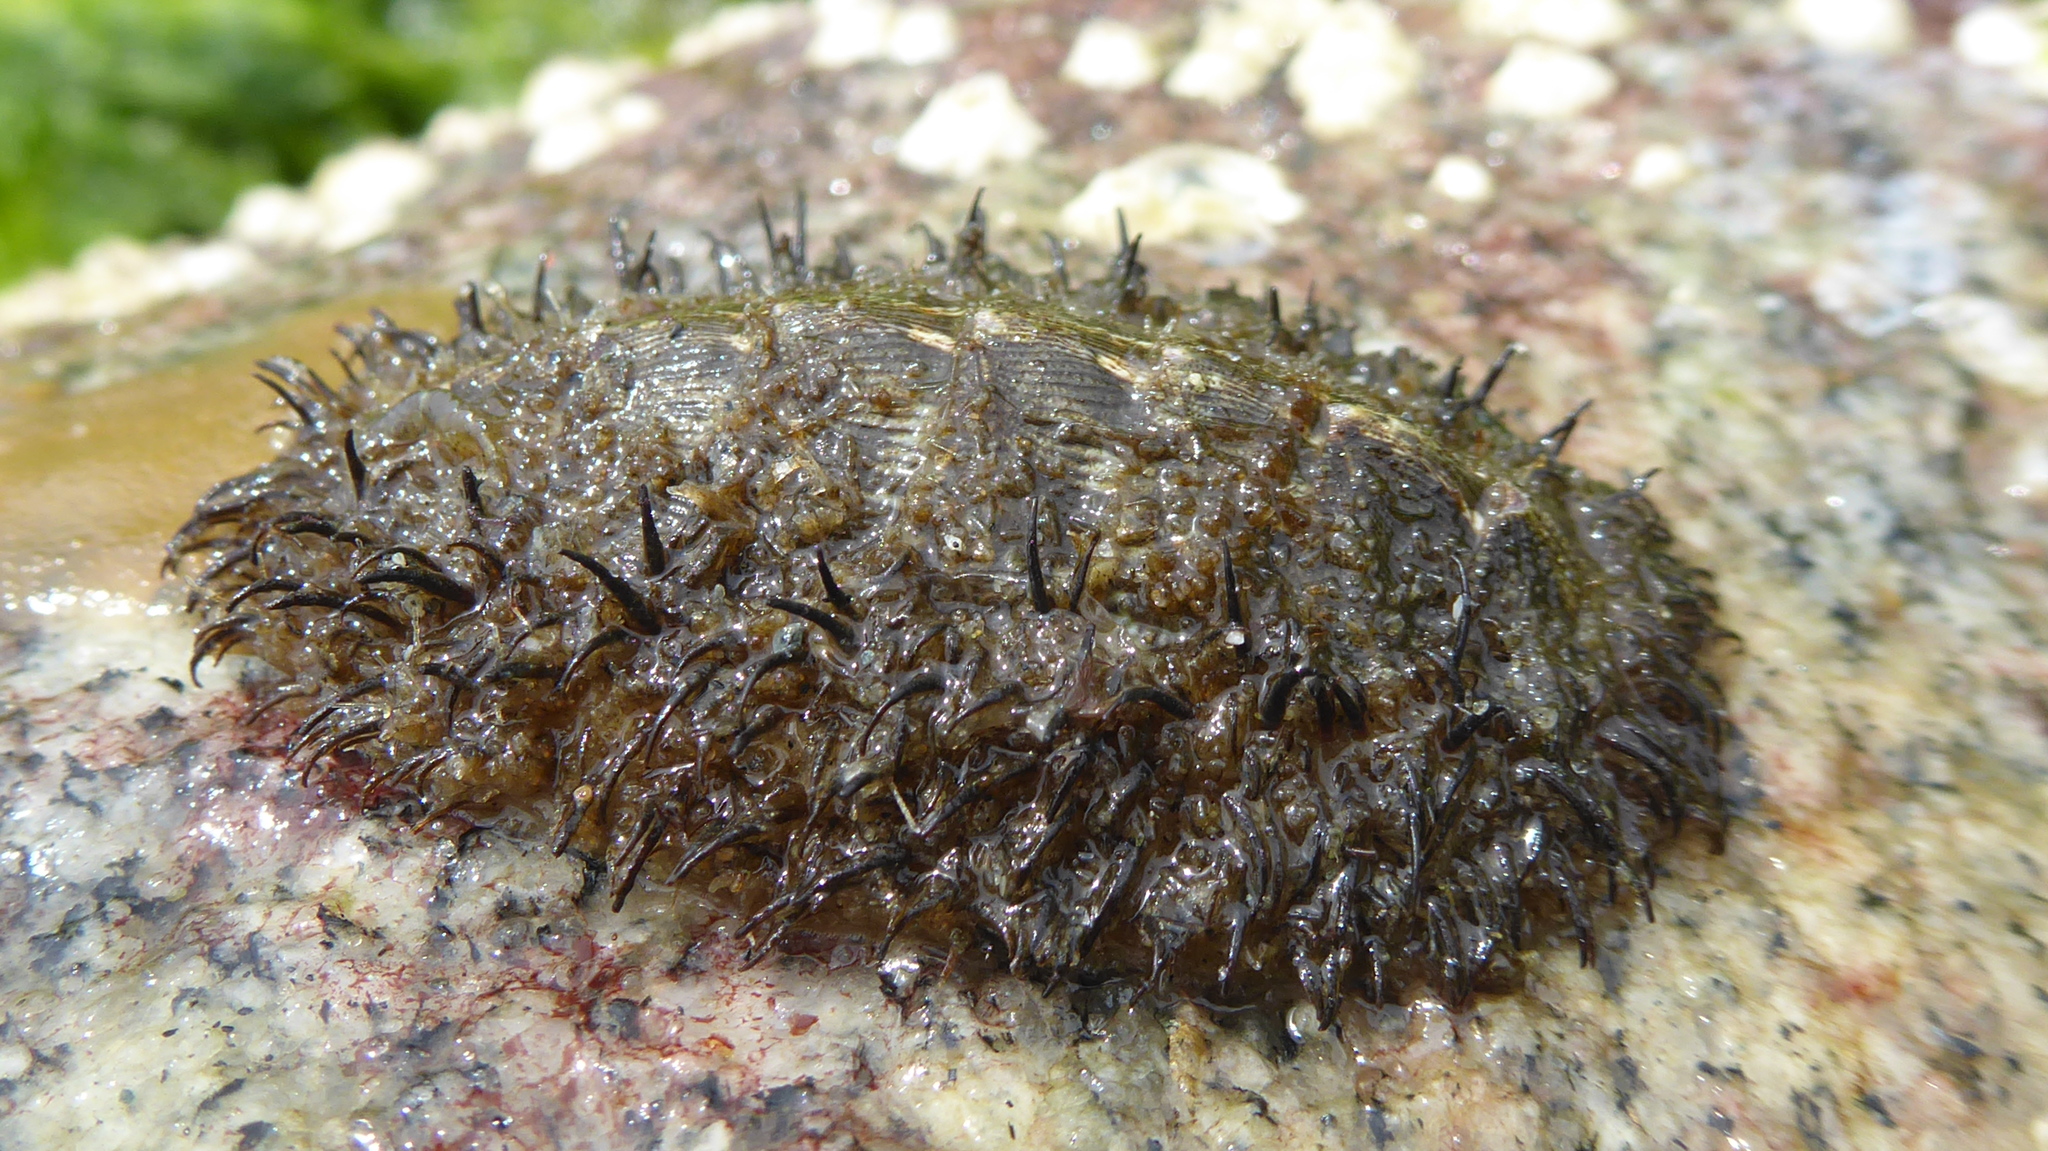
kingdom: Animalia
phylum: Mollusca
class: Polyplacophora
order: Chitonida
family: Mopaliidae
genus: Mopalia
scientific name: Mopalia muscosa
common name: Mossy chiton
